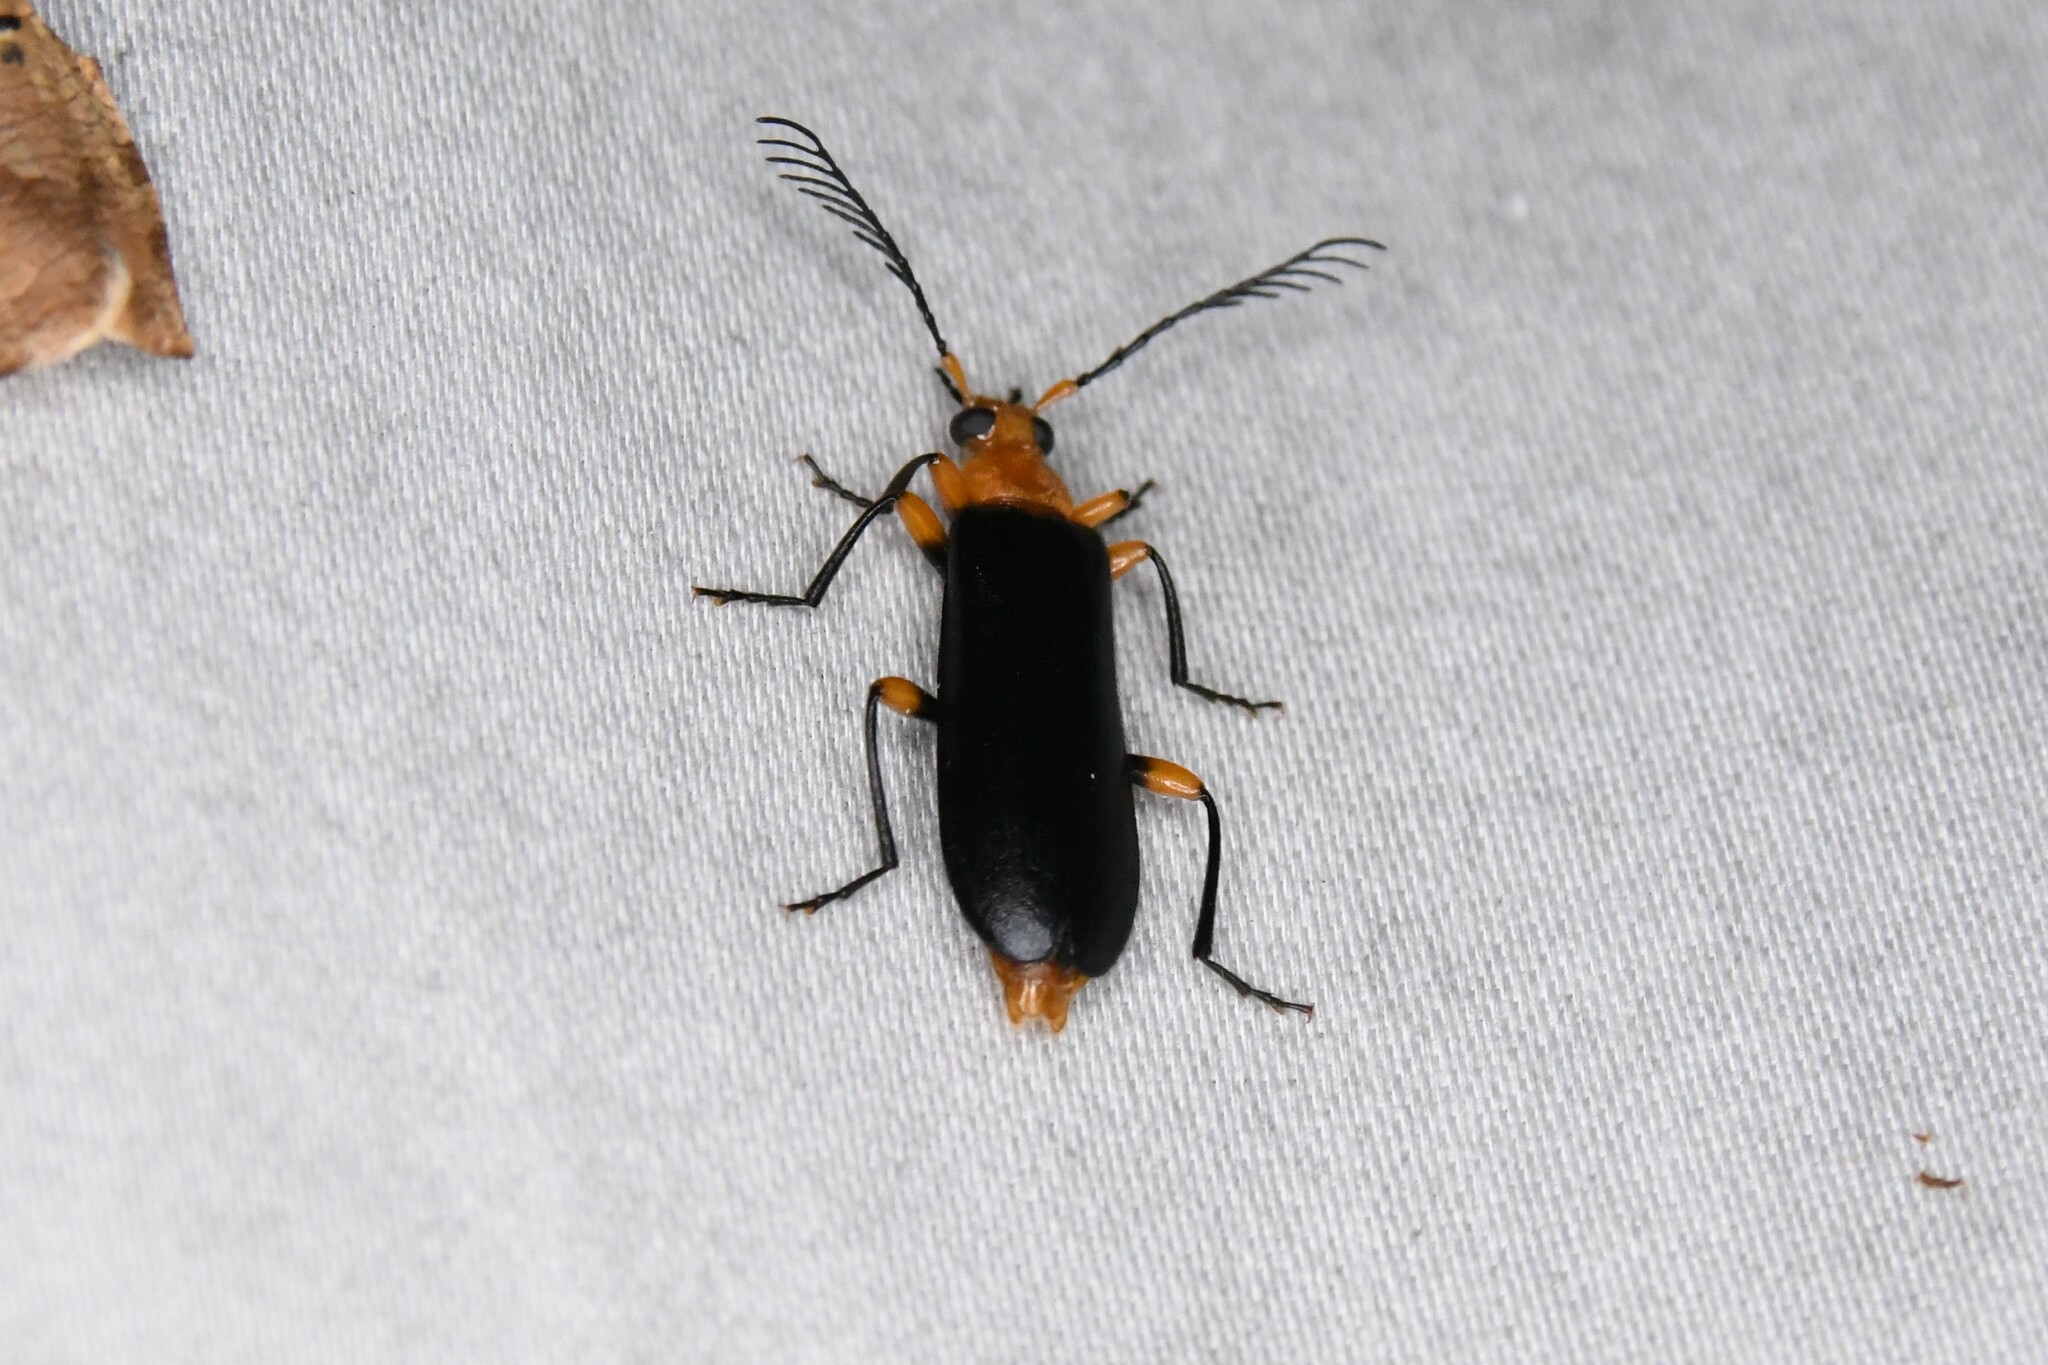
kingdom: Animalia
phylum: Arthropoda
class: Insecta
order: Coleoptera
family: Pyrochroidae
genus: Neopyrochroa
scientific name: Neopyrochroa femoralis
